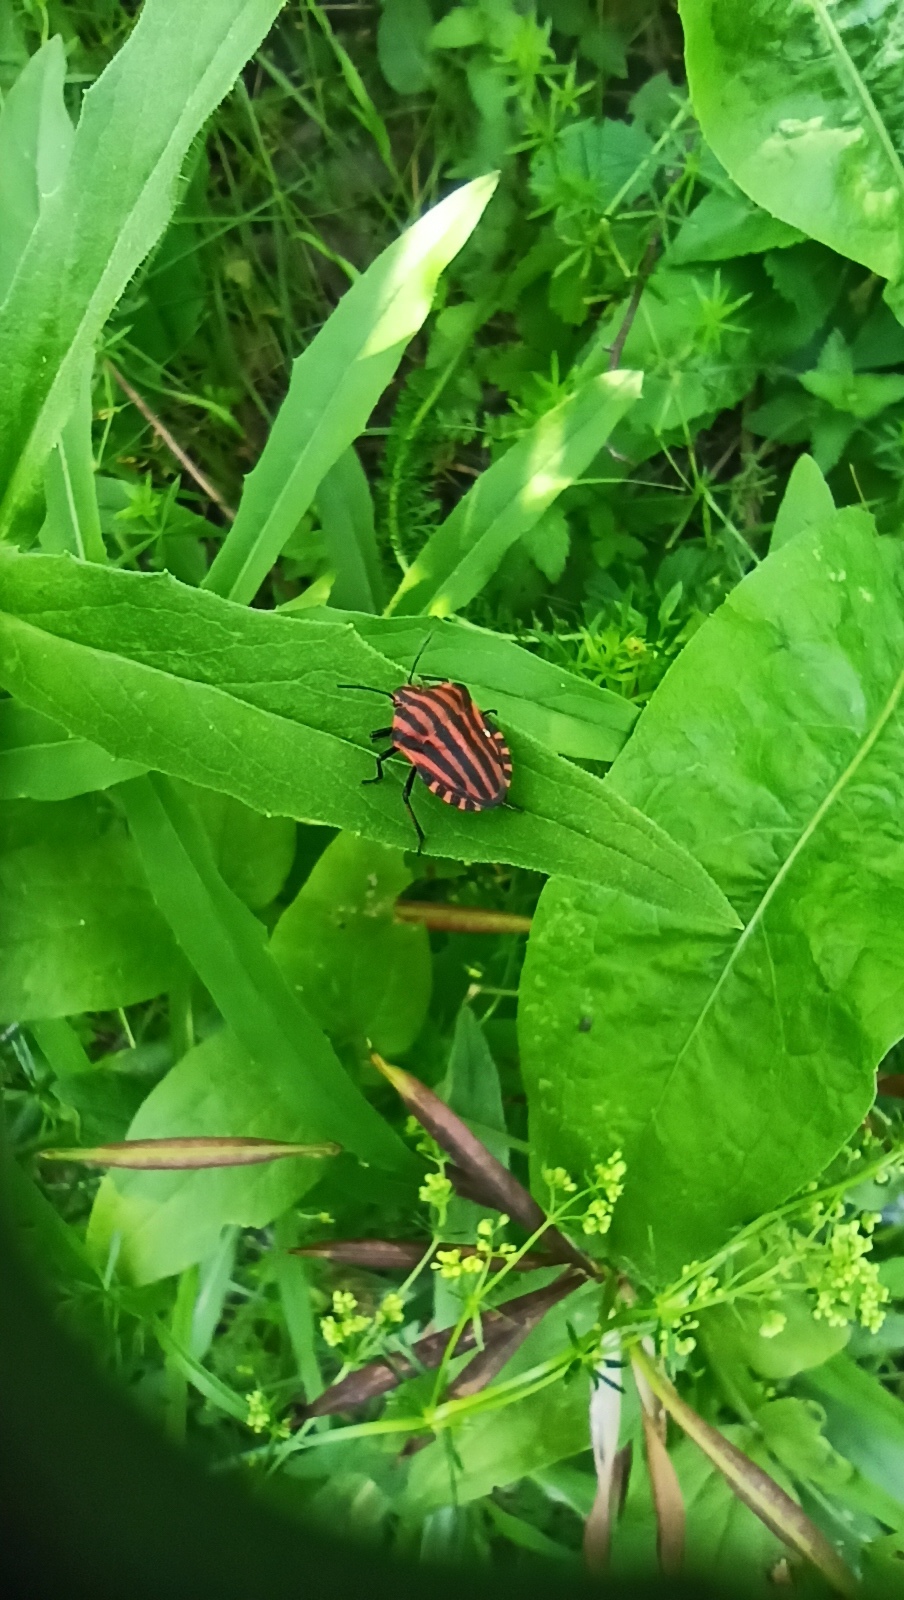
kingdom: Animalia
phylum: Arthropoda
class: Insecta
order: Hemiptera
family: Pentatomidae
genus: Graphosoma
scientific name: Graphosoma italicum
